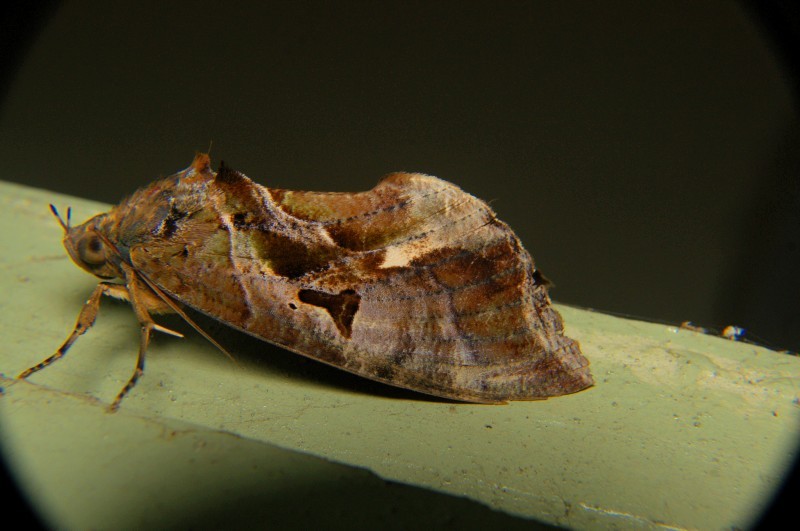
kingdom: Animalia
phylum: Arthropoda
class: Insecta
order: Lepidoptera
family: Erebidae
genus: Eudocima
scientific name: Eudocima phalonia
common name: Wasp
